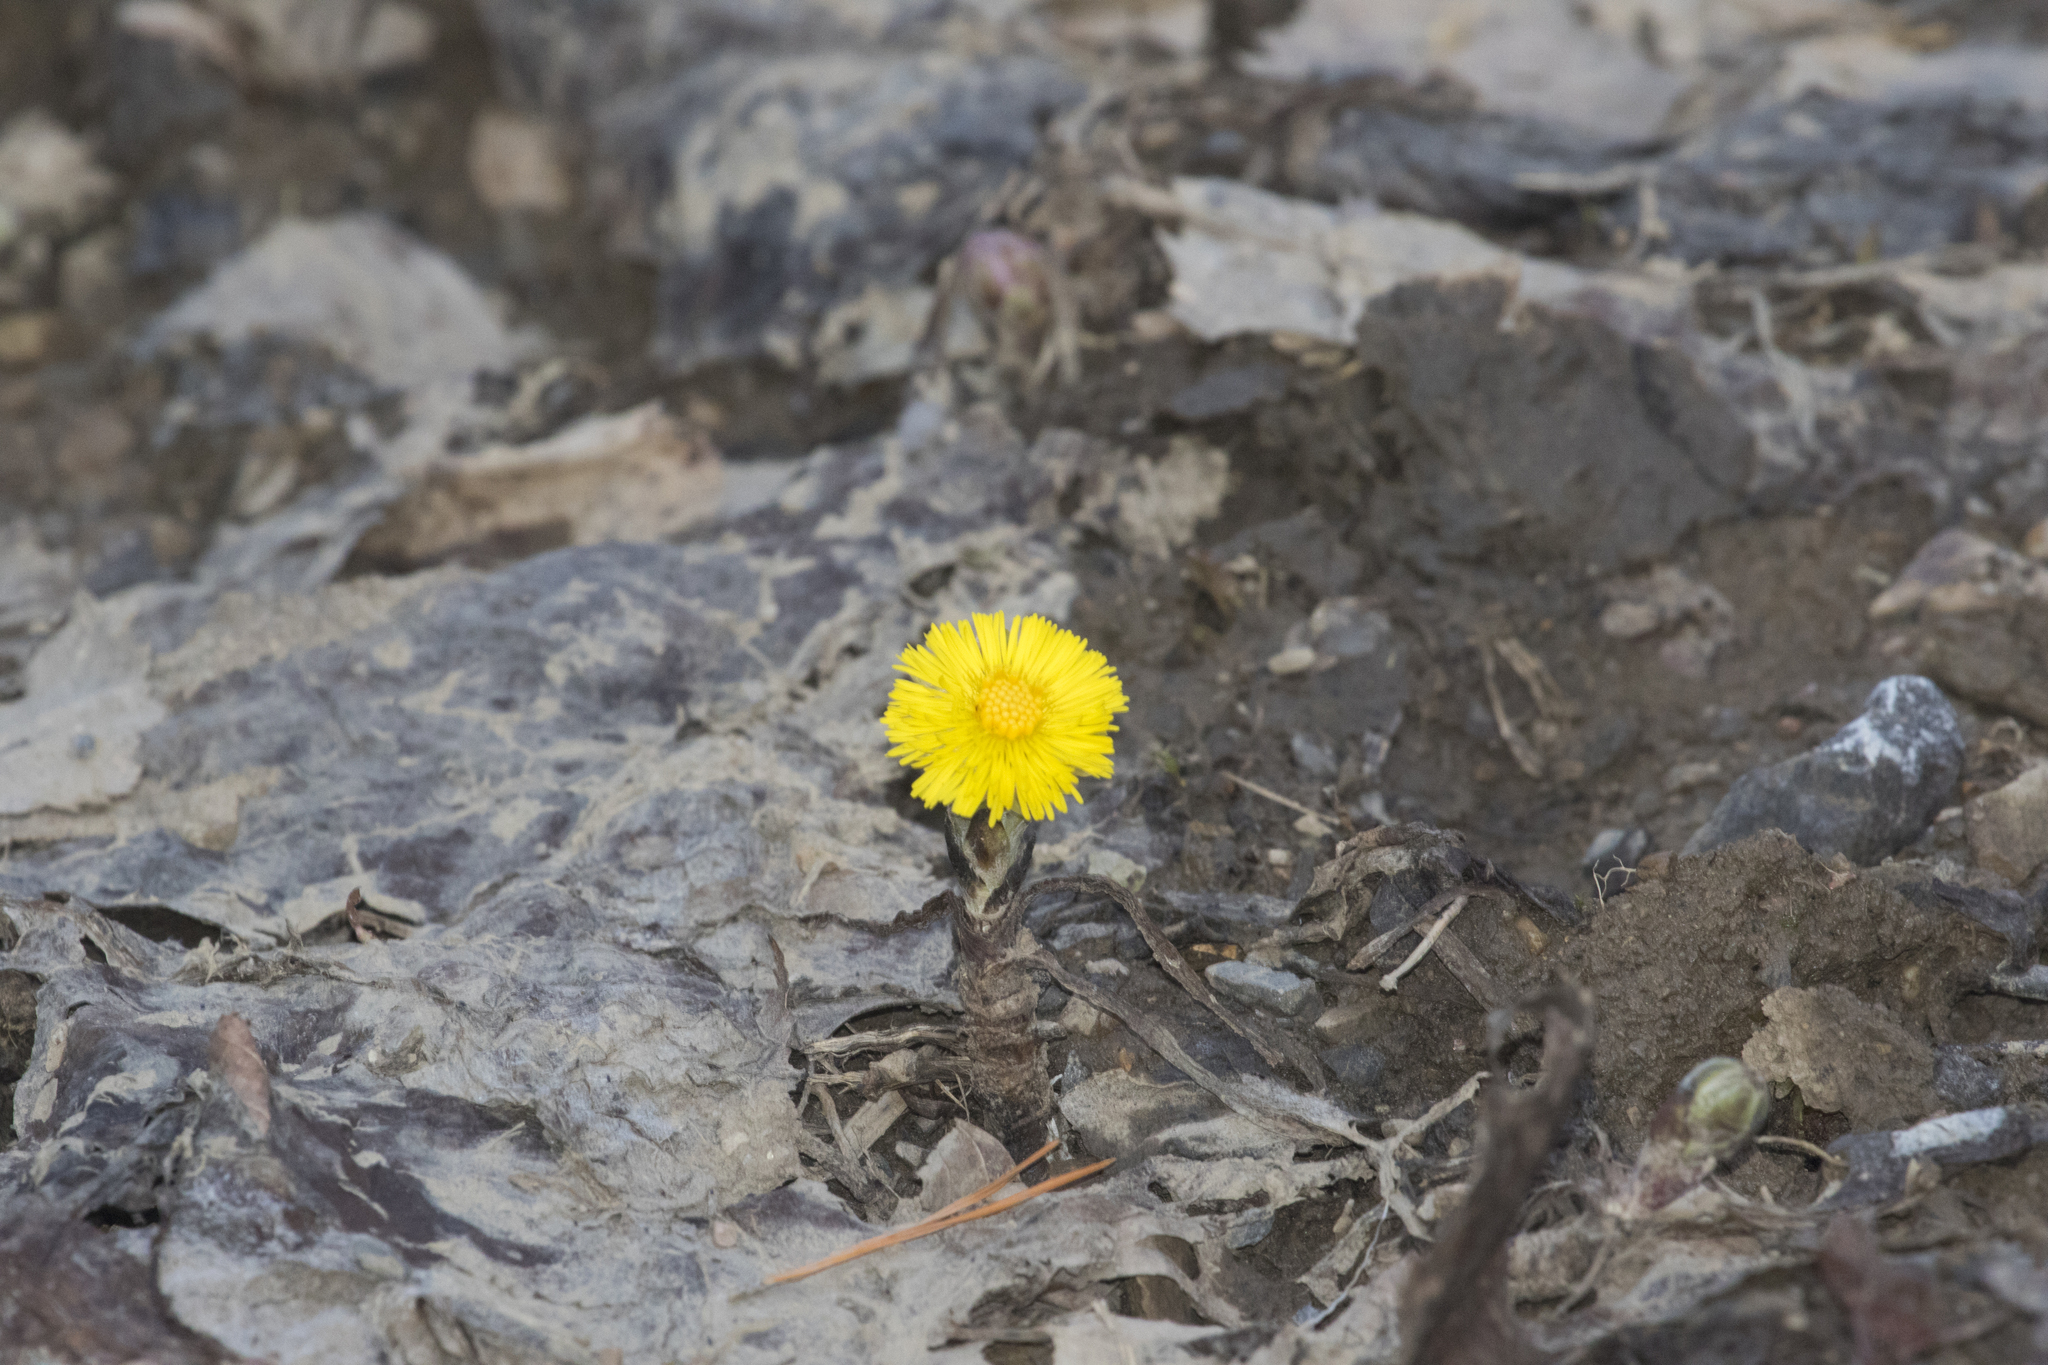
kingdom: Plantae
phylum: Tracheophyta
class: Magnoliopsida
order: Asterales
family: Asteraceae
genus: Tussilago
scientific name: Tussilago farfara
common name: Coltsfoot
